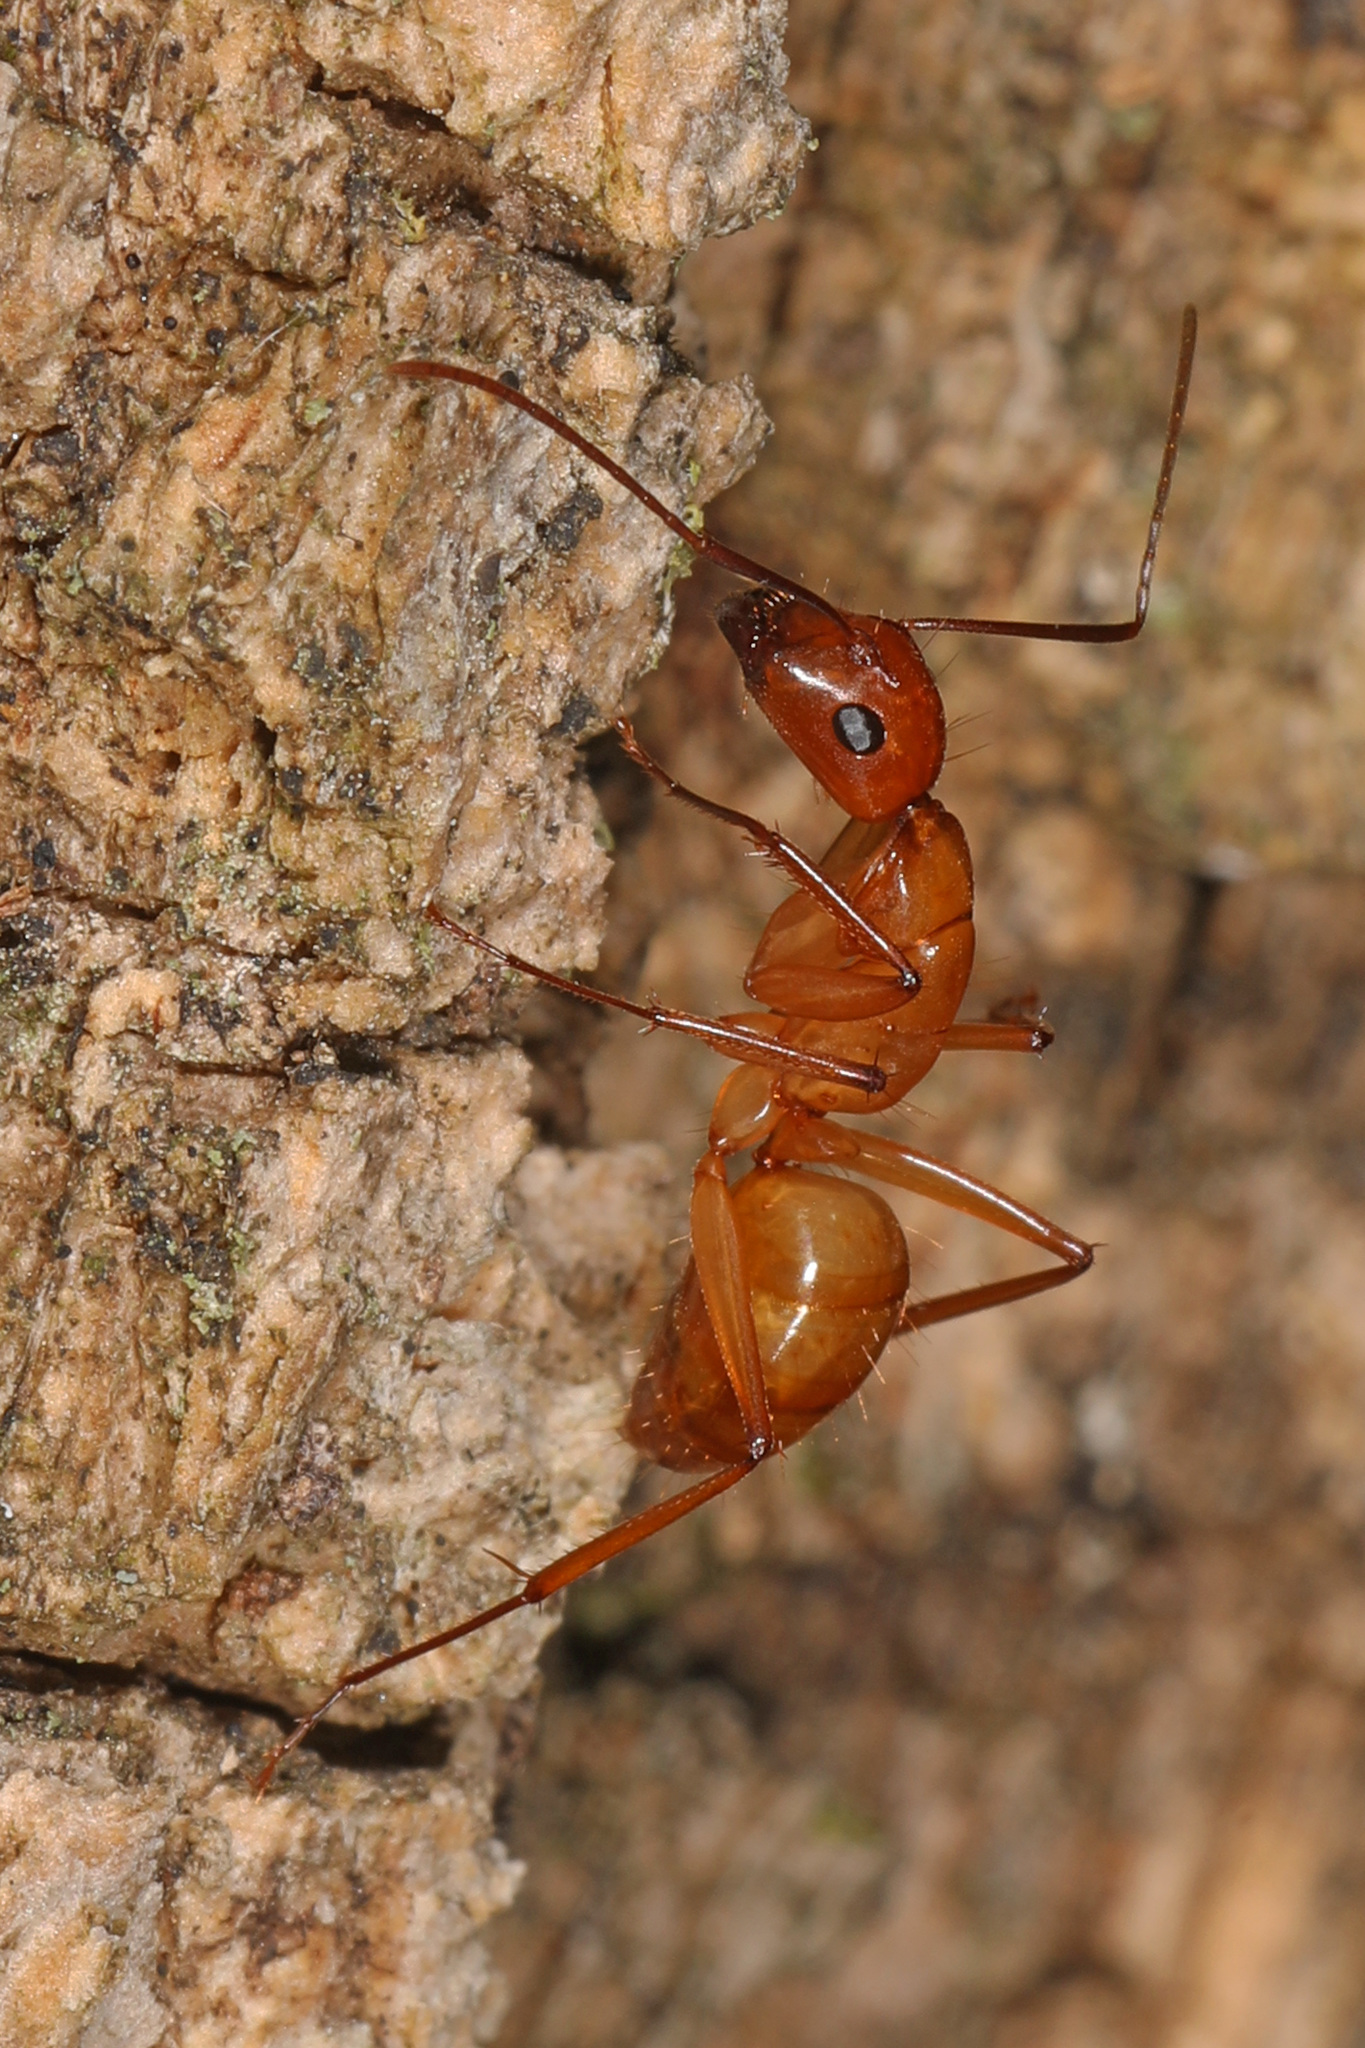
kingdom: Animalia
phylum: Arthropoda
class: Insecta
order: Hymenoptera
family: Formicidae
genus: Camponotus
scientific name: Camponotus castaneus
